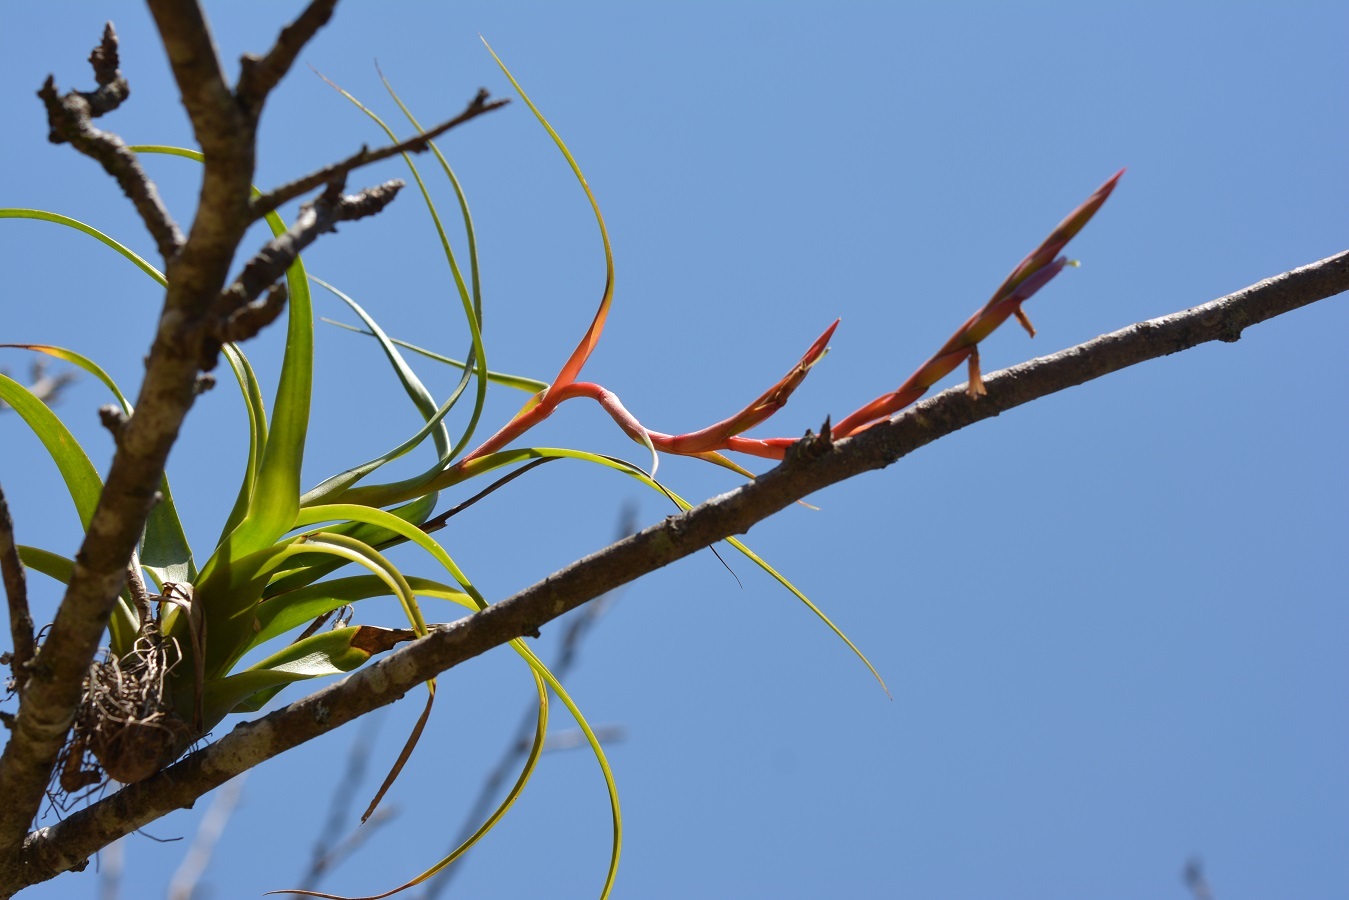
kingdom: Plantae
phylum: Tracheophyta
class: Liliopsida
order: Poales
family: Bromeliaceae
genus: Tillandsia
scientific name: Tillandsia caput-medusae
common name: Octopus plant
